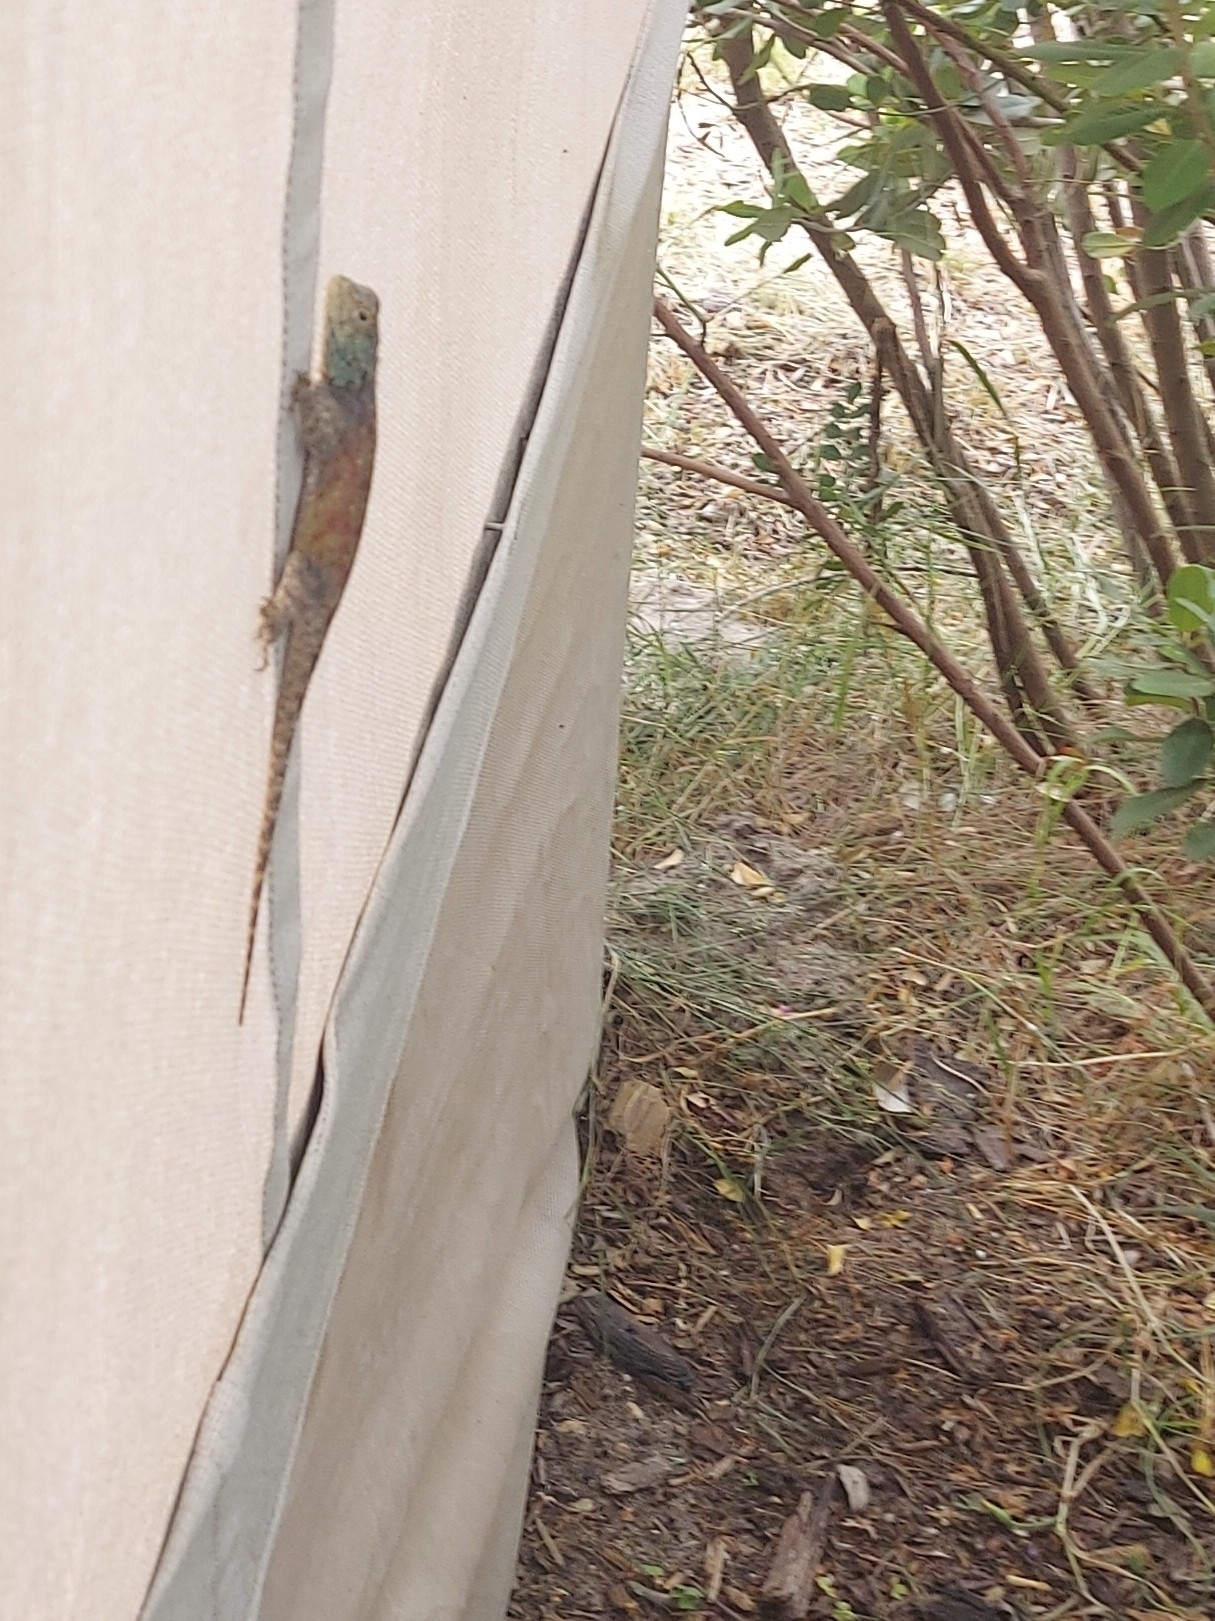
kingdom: Animalia
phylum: Chordata
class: Squamata
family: Agamidae
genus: Agama
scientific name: Agama atra
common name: Southern african rock agama
